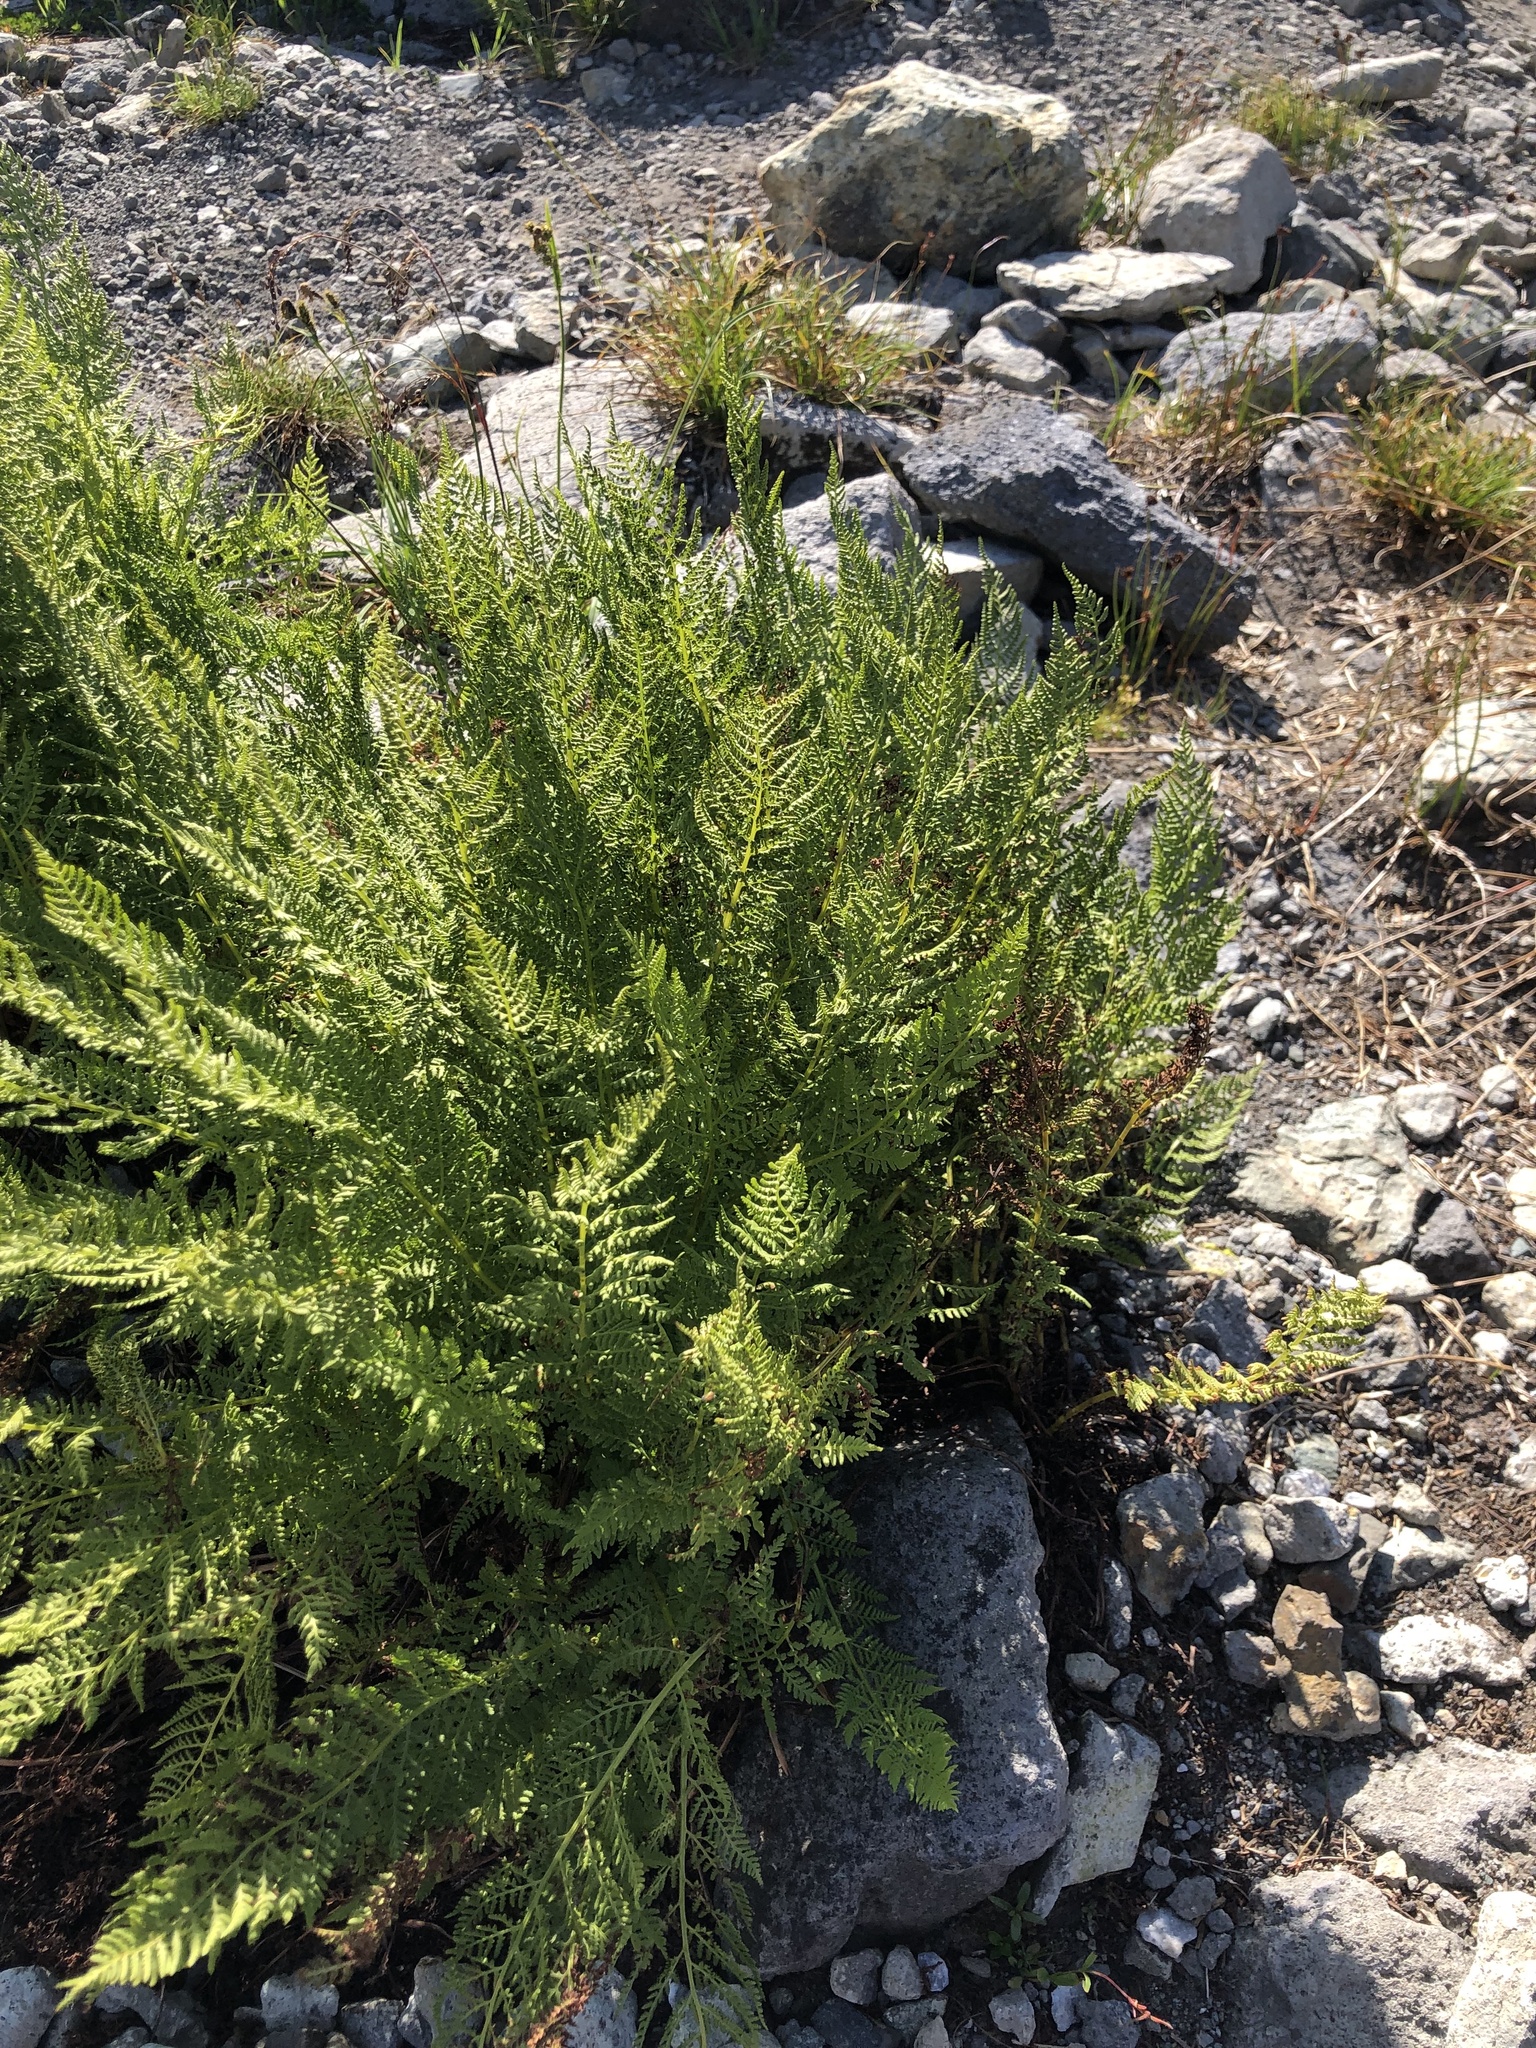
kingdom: Plantae
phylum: Tracheophyta
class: Polypodiopsida
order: Polypodiales
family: Athyriaceae
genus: Athyrium
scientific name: Athyrium americanum
